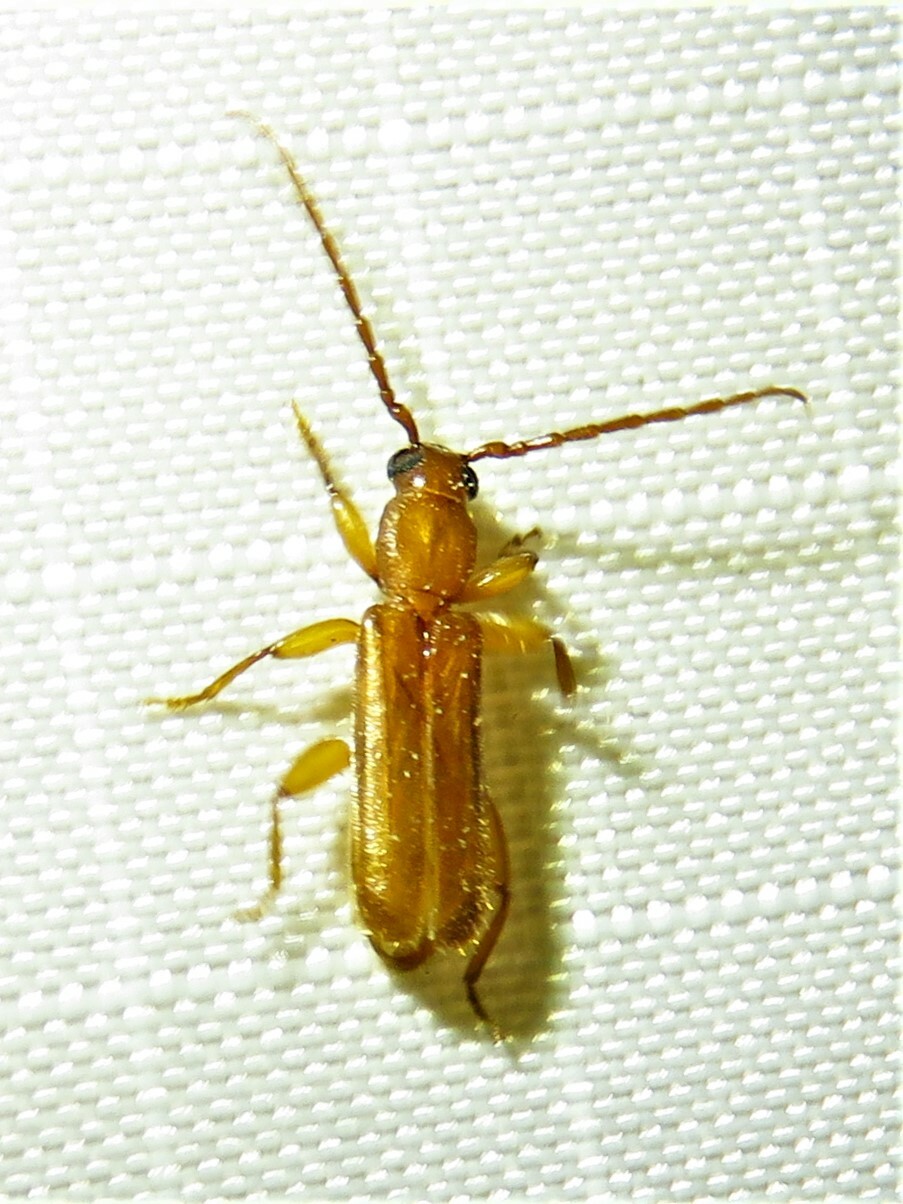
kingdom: Animalia
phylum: Arthropoda
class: Insecta
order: Coleoptera
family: Cerambycidae
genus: Smodicum
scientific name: Smodicum cucujiforme
